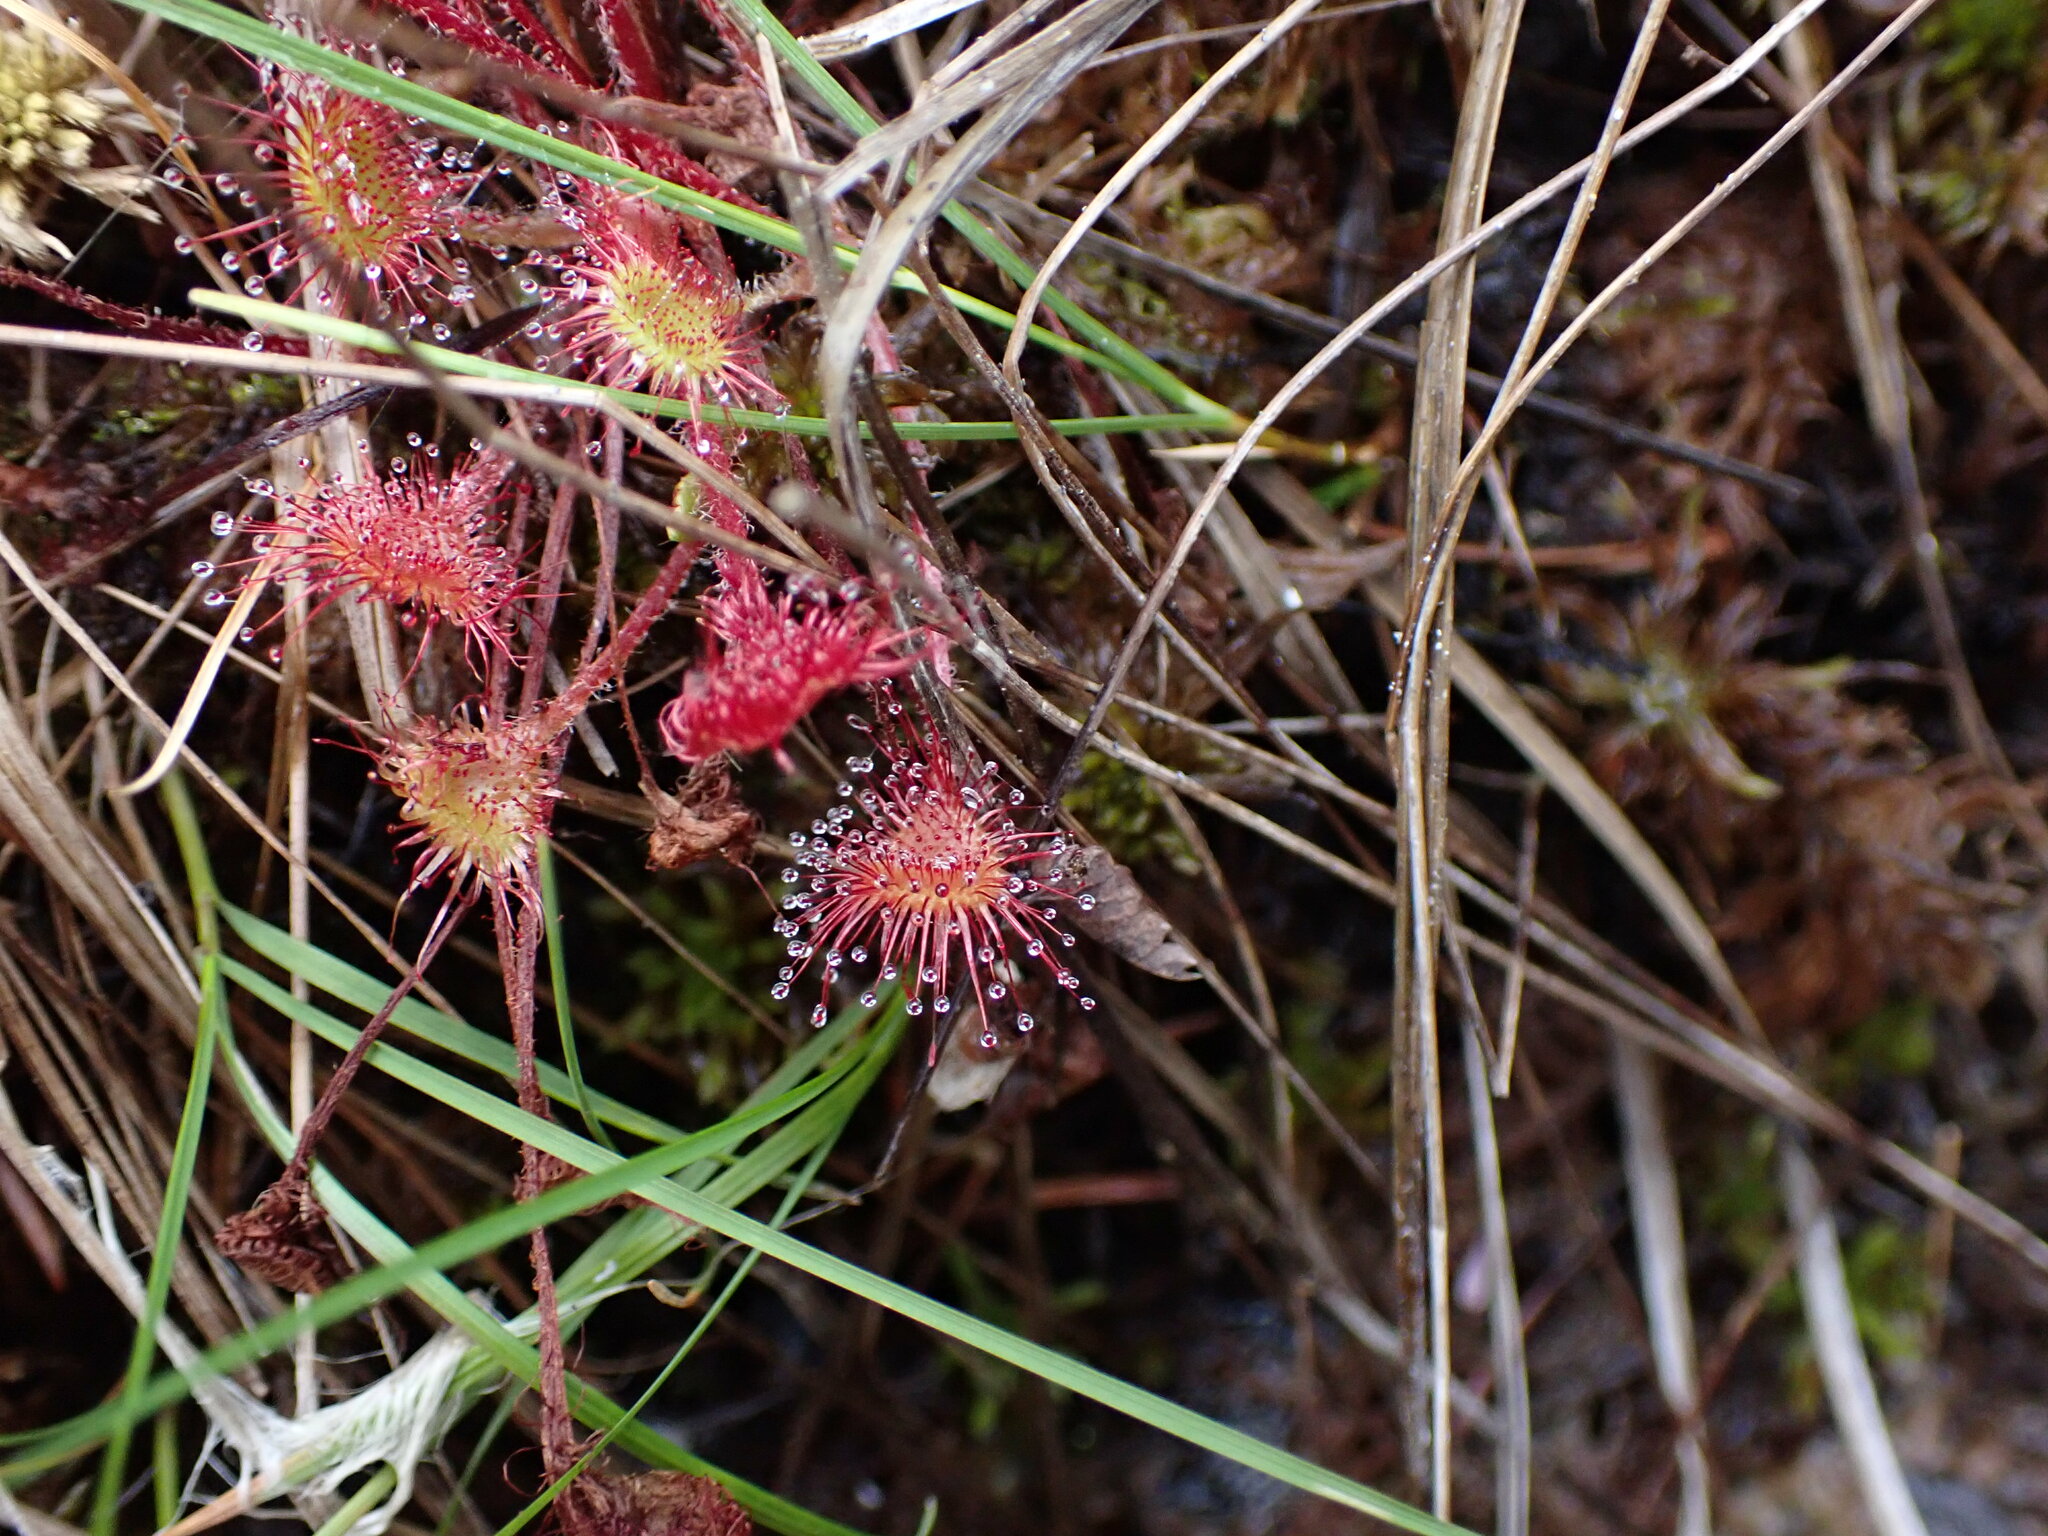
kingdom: Plantae
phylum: Tracheophyta
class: Magnoliopsida
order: Caryophyllales
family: Droseraceae
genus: Drosera
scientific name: Drosera rotundifolia
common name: Round-leaved sundew
